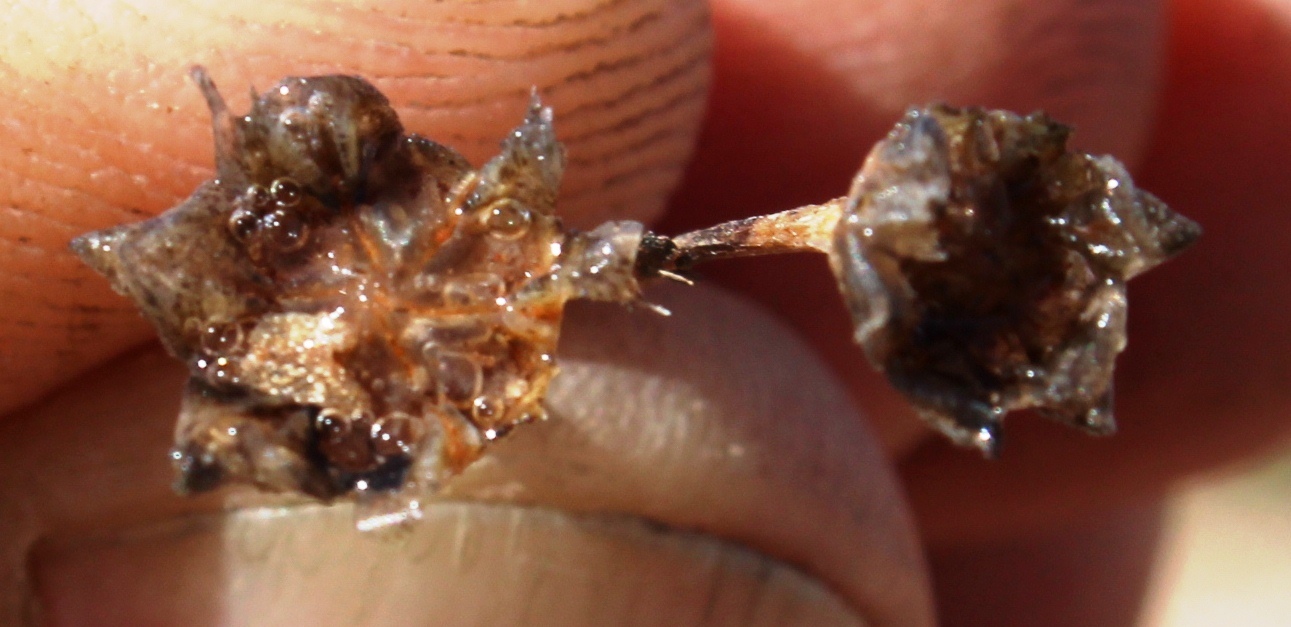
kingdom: Plantae
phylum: Tracheophyta
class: Magnoliopsida
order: Caryophyllales
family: Aizoaceae
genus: Gibbaeum
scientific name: Gibbaeum nuciforme
